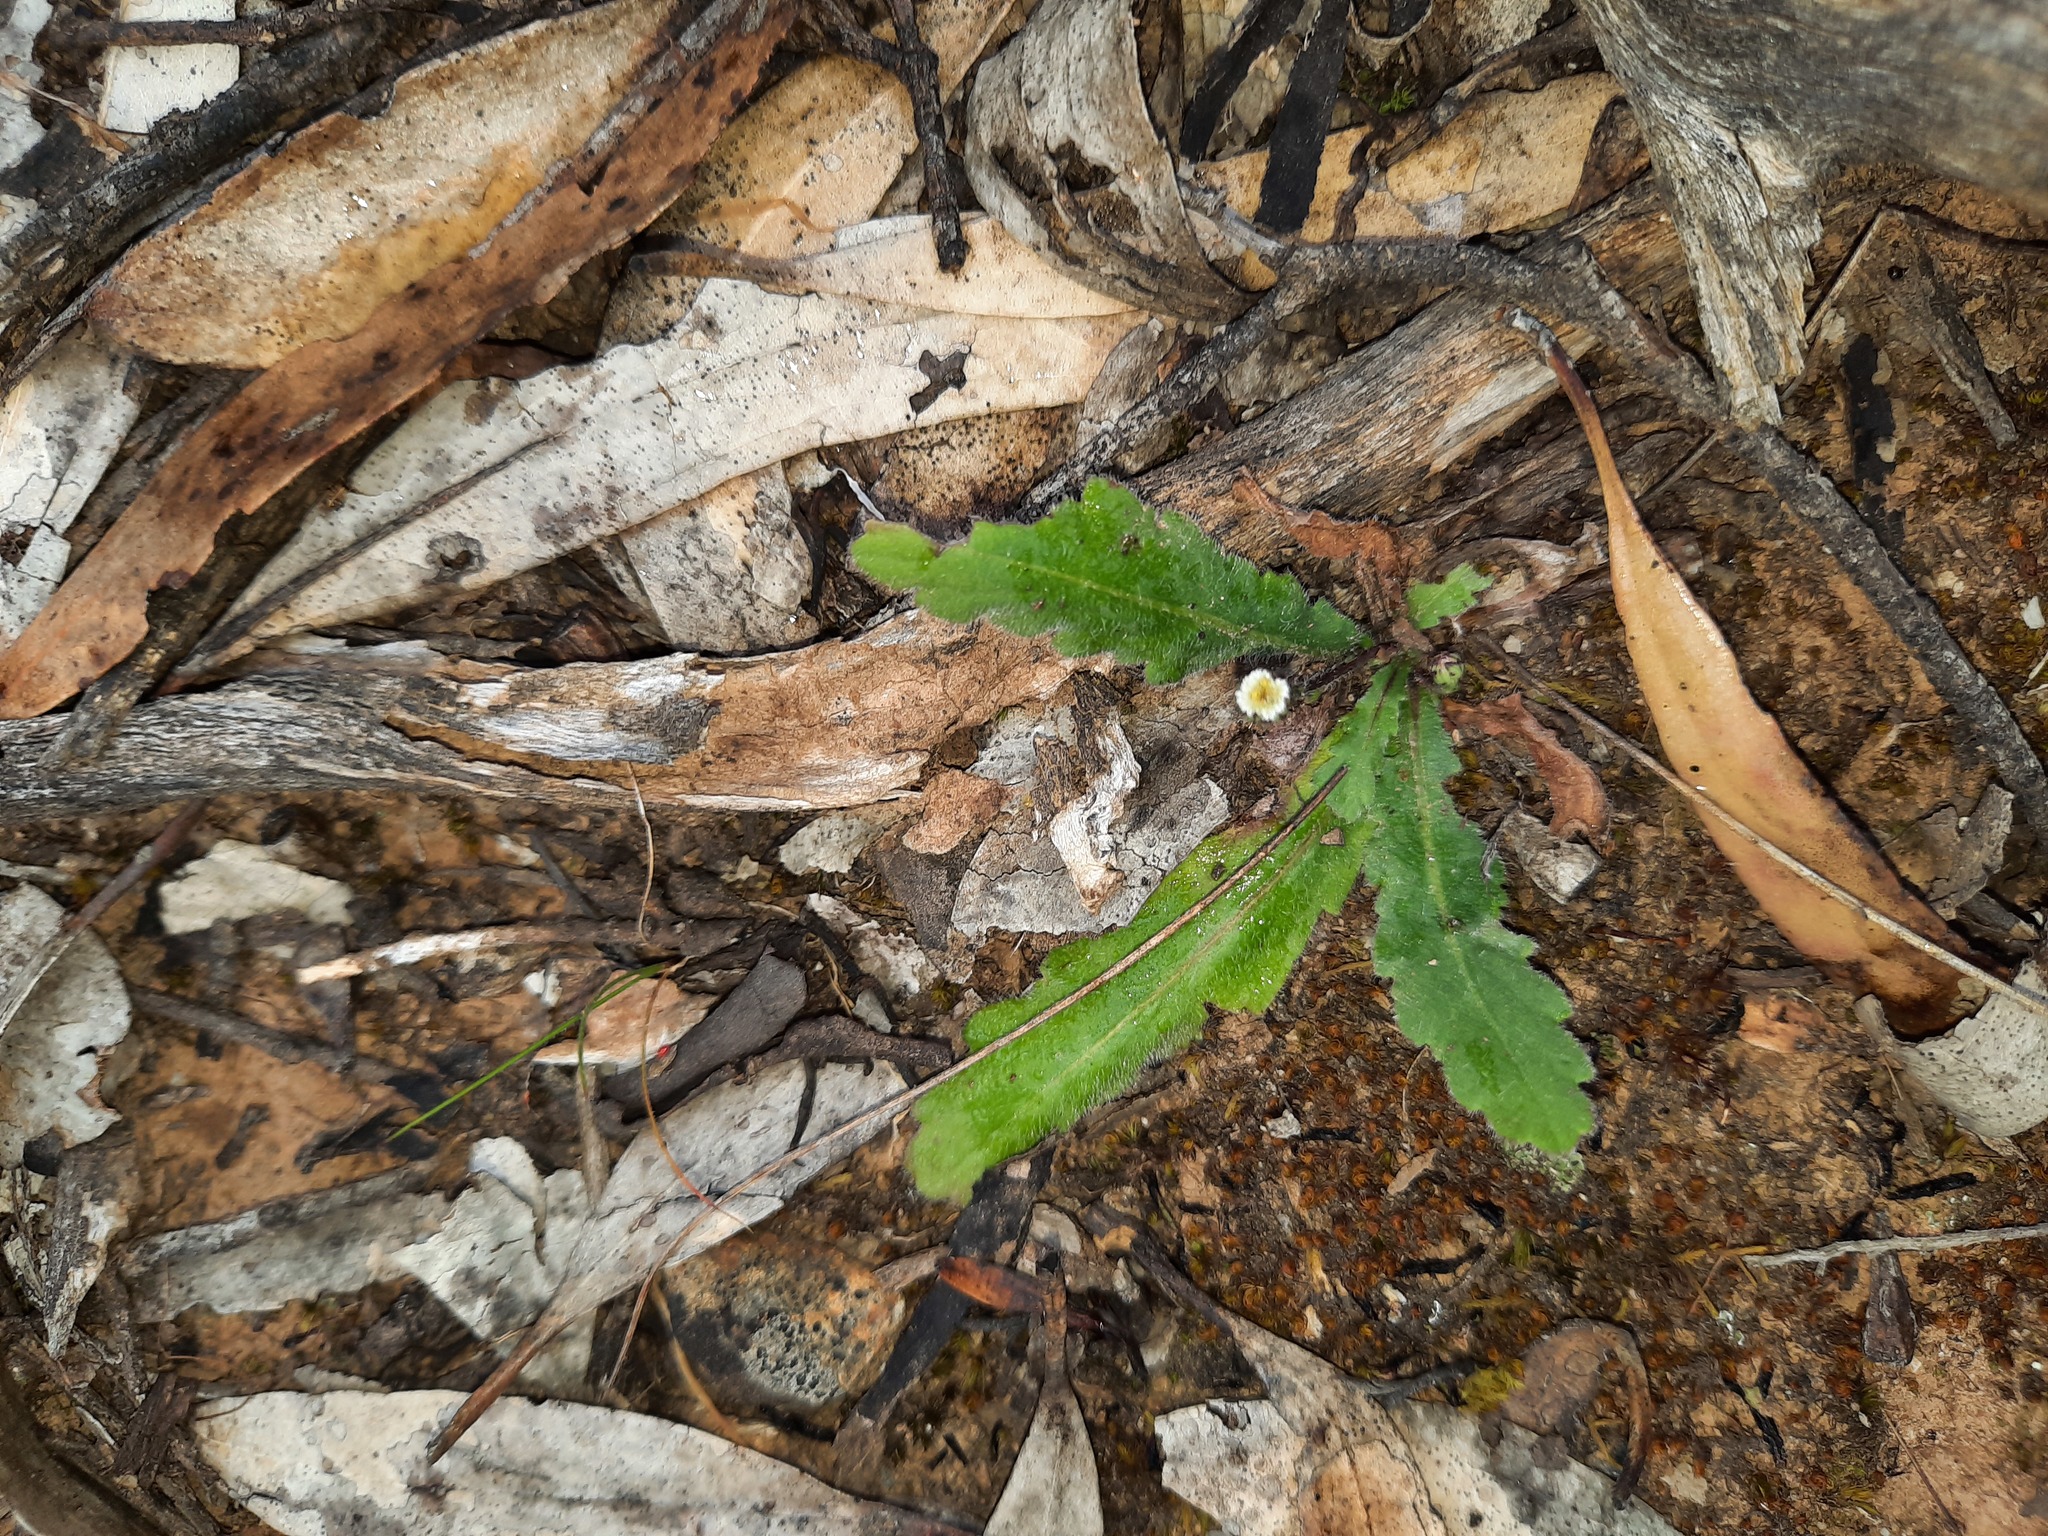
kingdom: Plantae
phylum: Tracheophyta
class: Magnoliopsida
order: Asterales
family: Asteraceae
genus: Lagenophora
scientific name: Lagenophora huegelii
